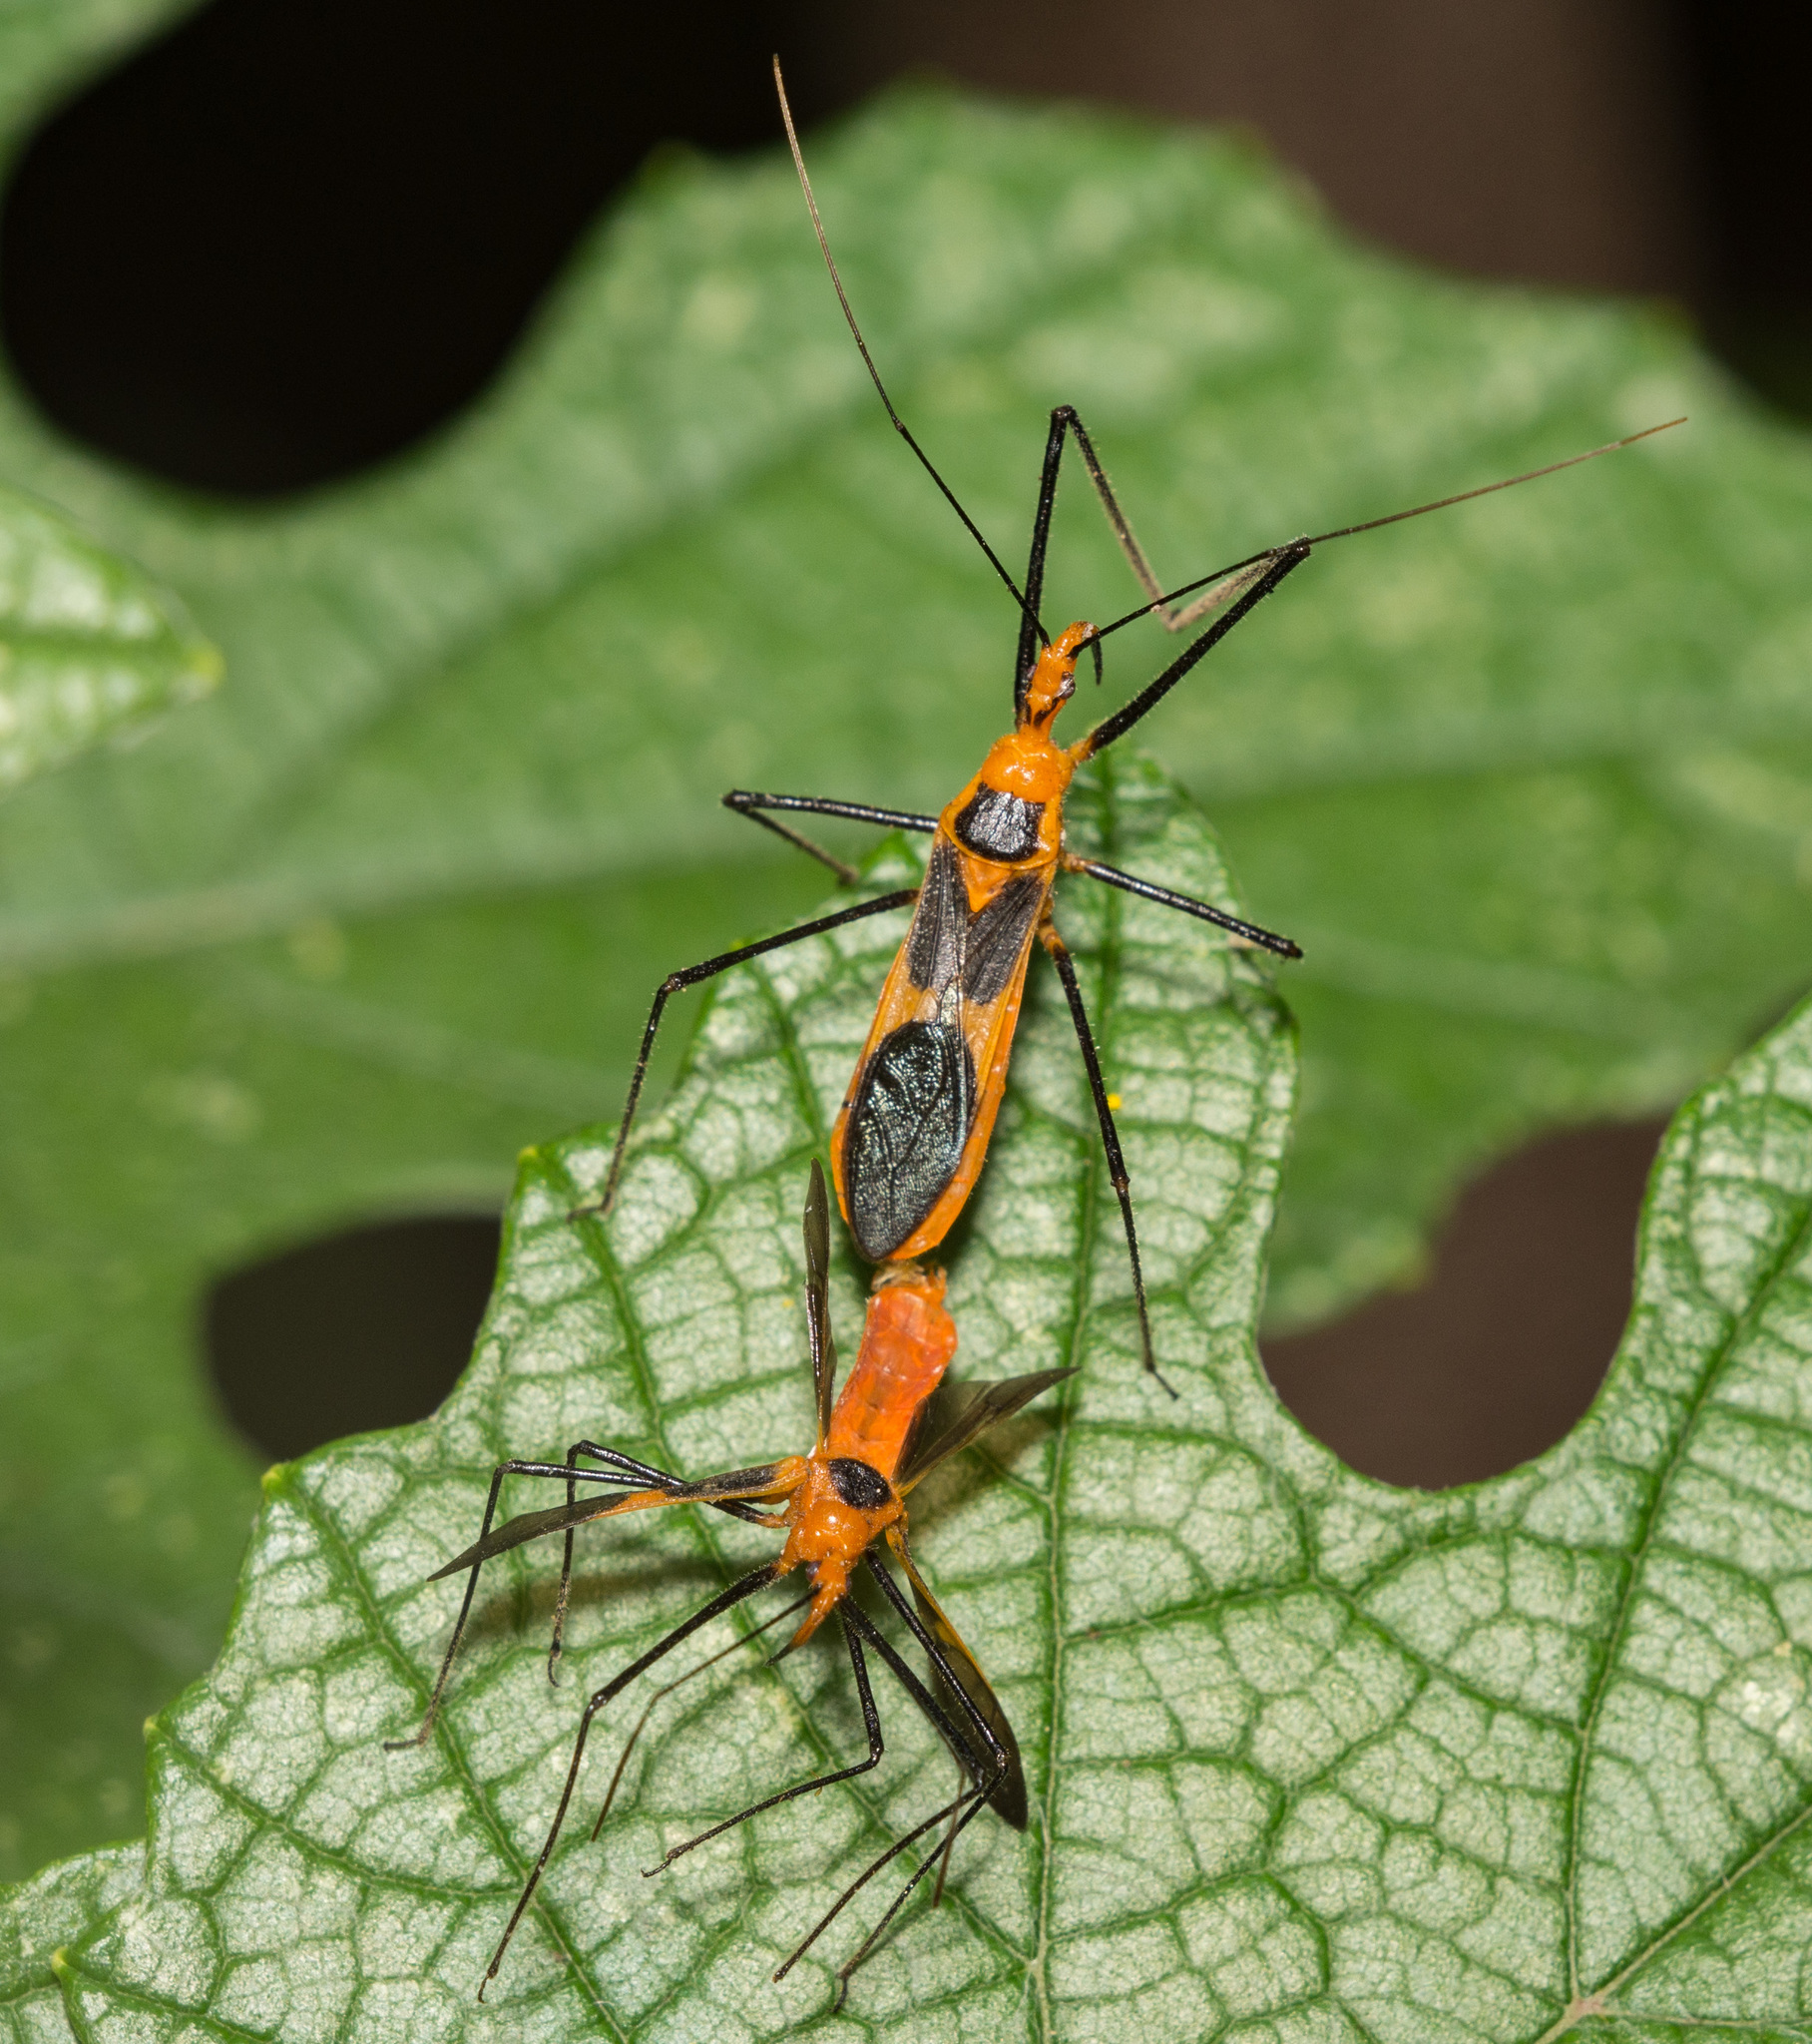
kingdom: Animalia
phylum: Arthropoda
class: Insecta
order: Hemiptera
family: Reduviidae
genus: Zelus
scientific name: Zelus longipes
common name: Milkweed assassin bug
